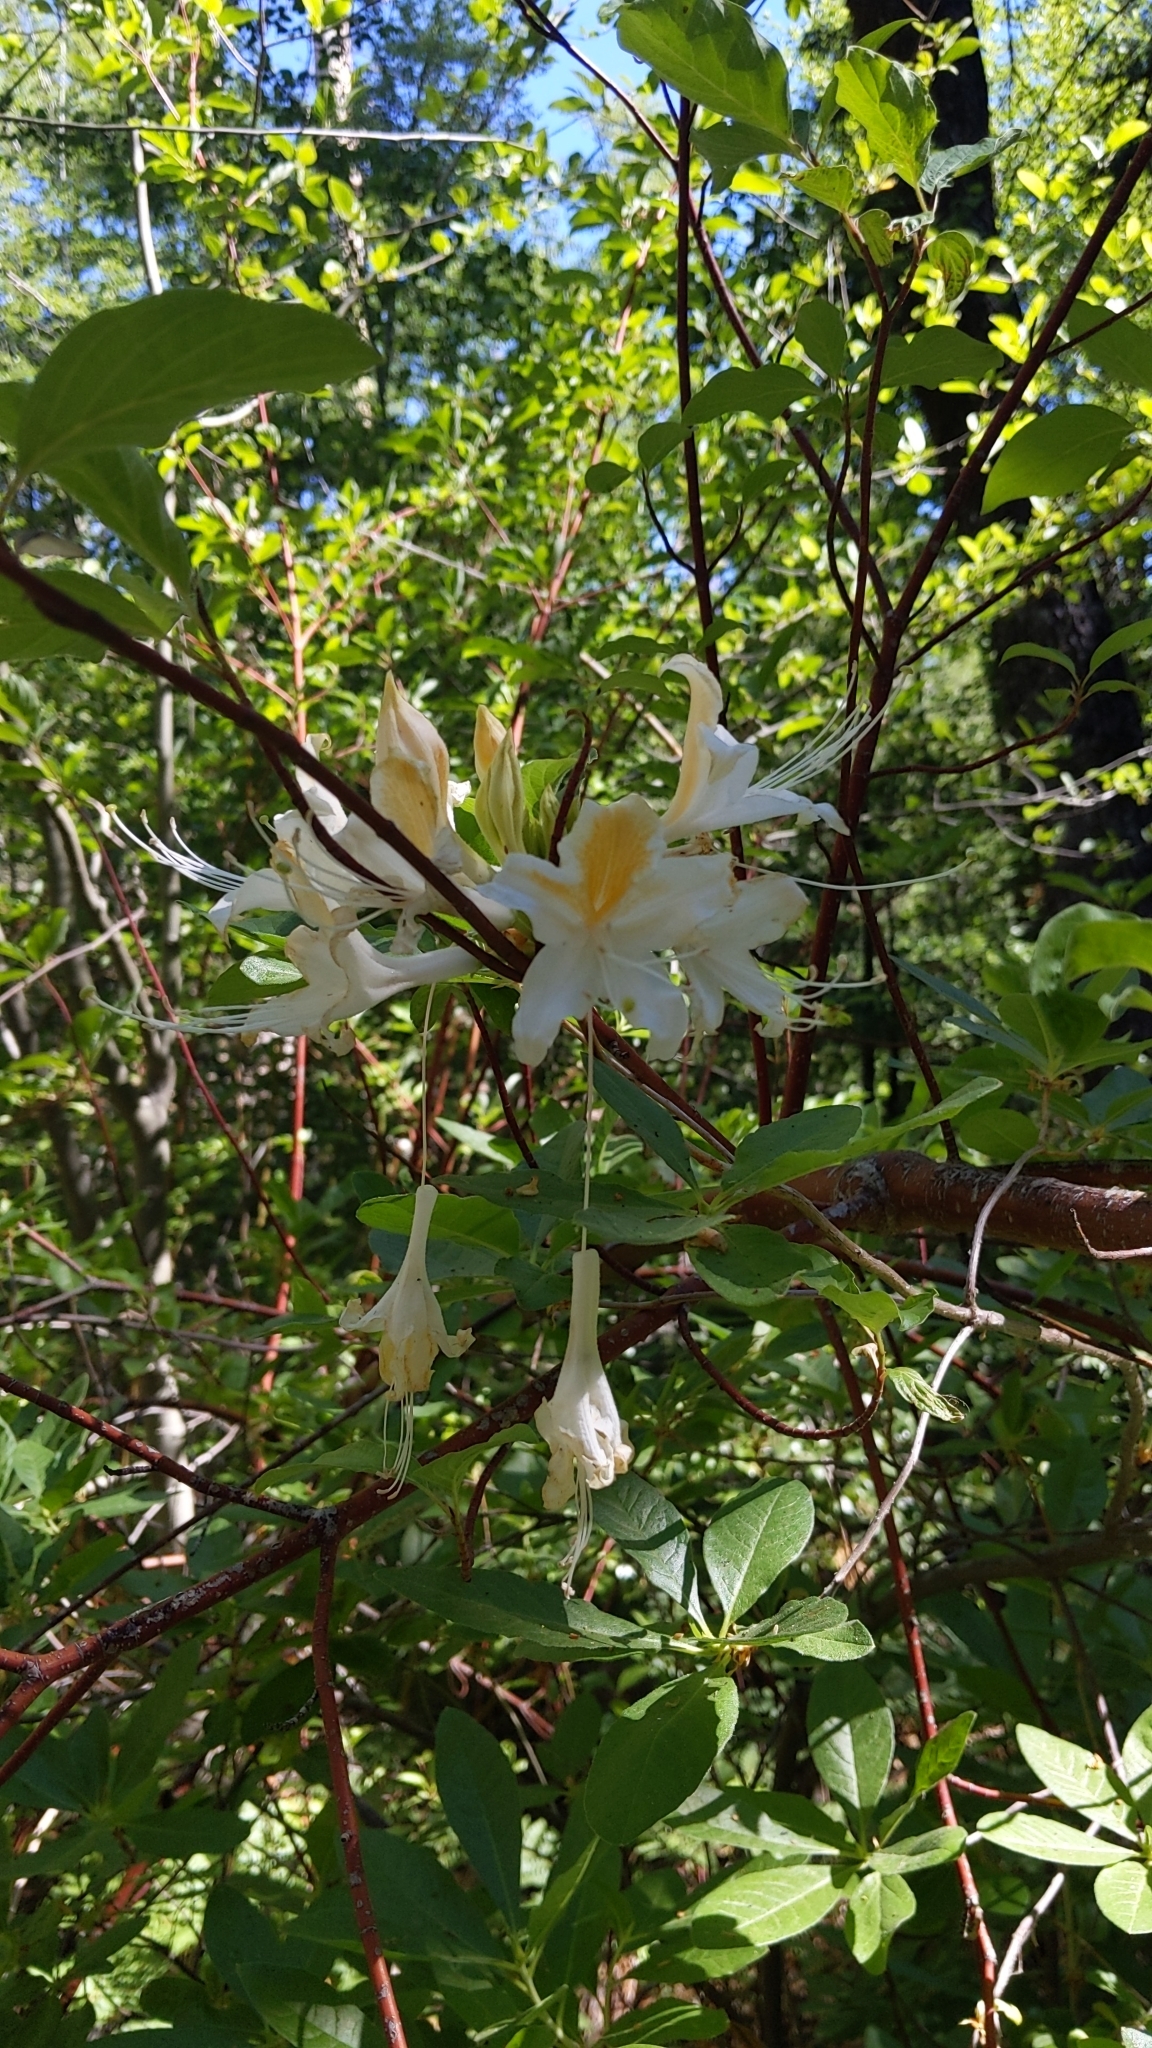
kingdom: Plantae
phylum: Tracheophyta
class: Magnoliopsida
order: Ericales
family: Ericaceae
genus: Rhododendron
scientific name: Rhododendron occidentale
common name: Western azalea
